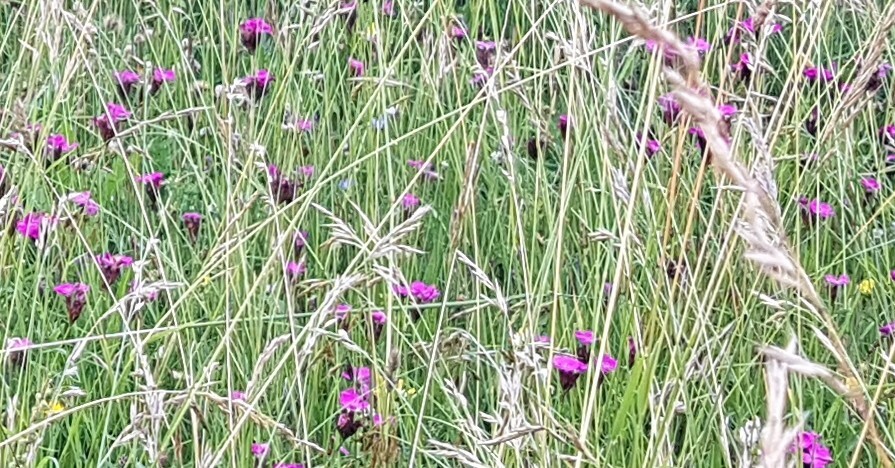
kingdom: Plantae
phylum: Tracheophyta
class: Magnoliopsida
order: Caryophyllales
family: Caryophyllaceae
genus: Dianthus
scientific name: Dianthus carthusianorum
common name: Carthusian pink
